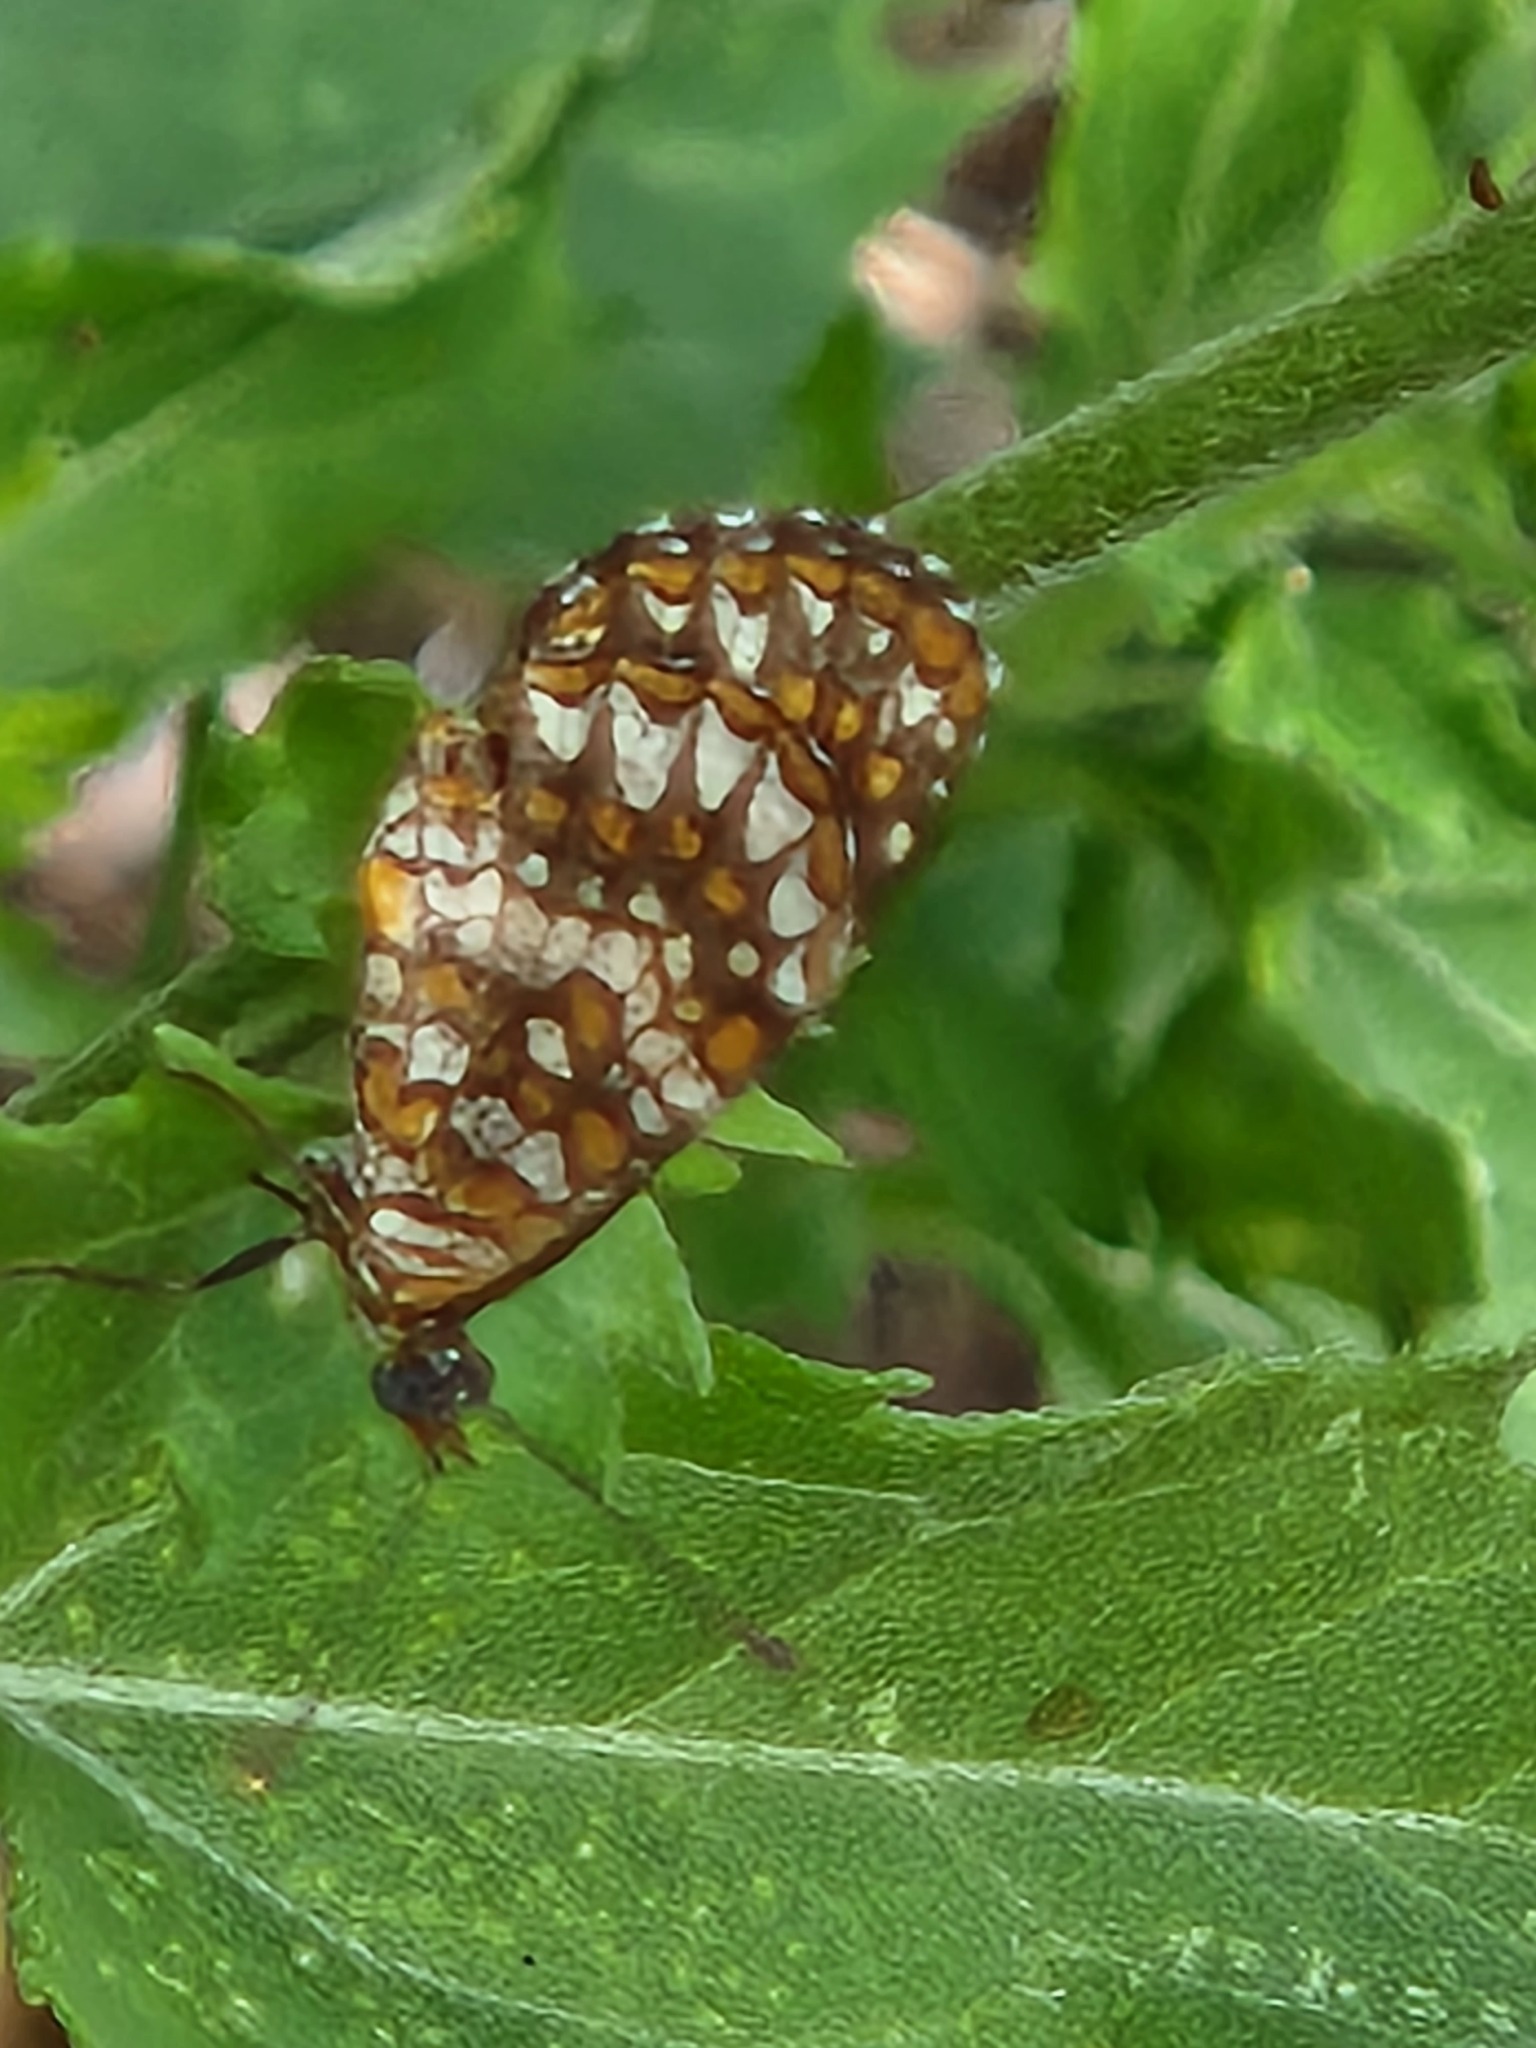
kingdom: Animalia
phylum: Arthropoda
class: Insecta
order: Lepidoptera
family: Nymphalidae
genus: Texola
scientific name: Texola elada
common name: Elada checkerspot
